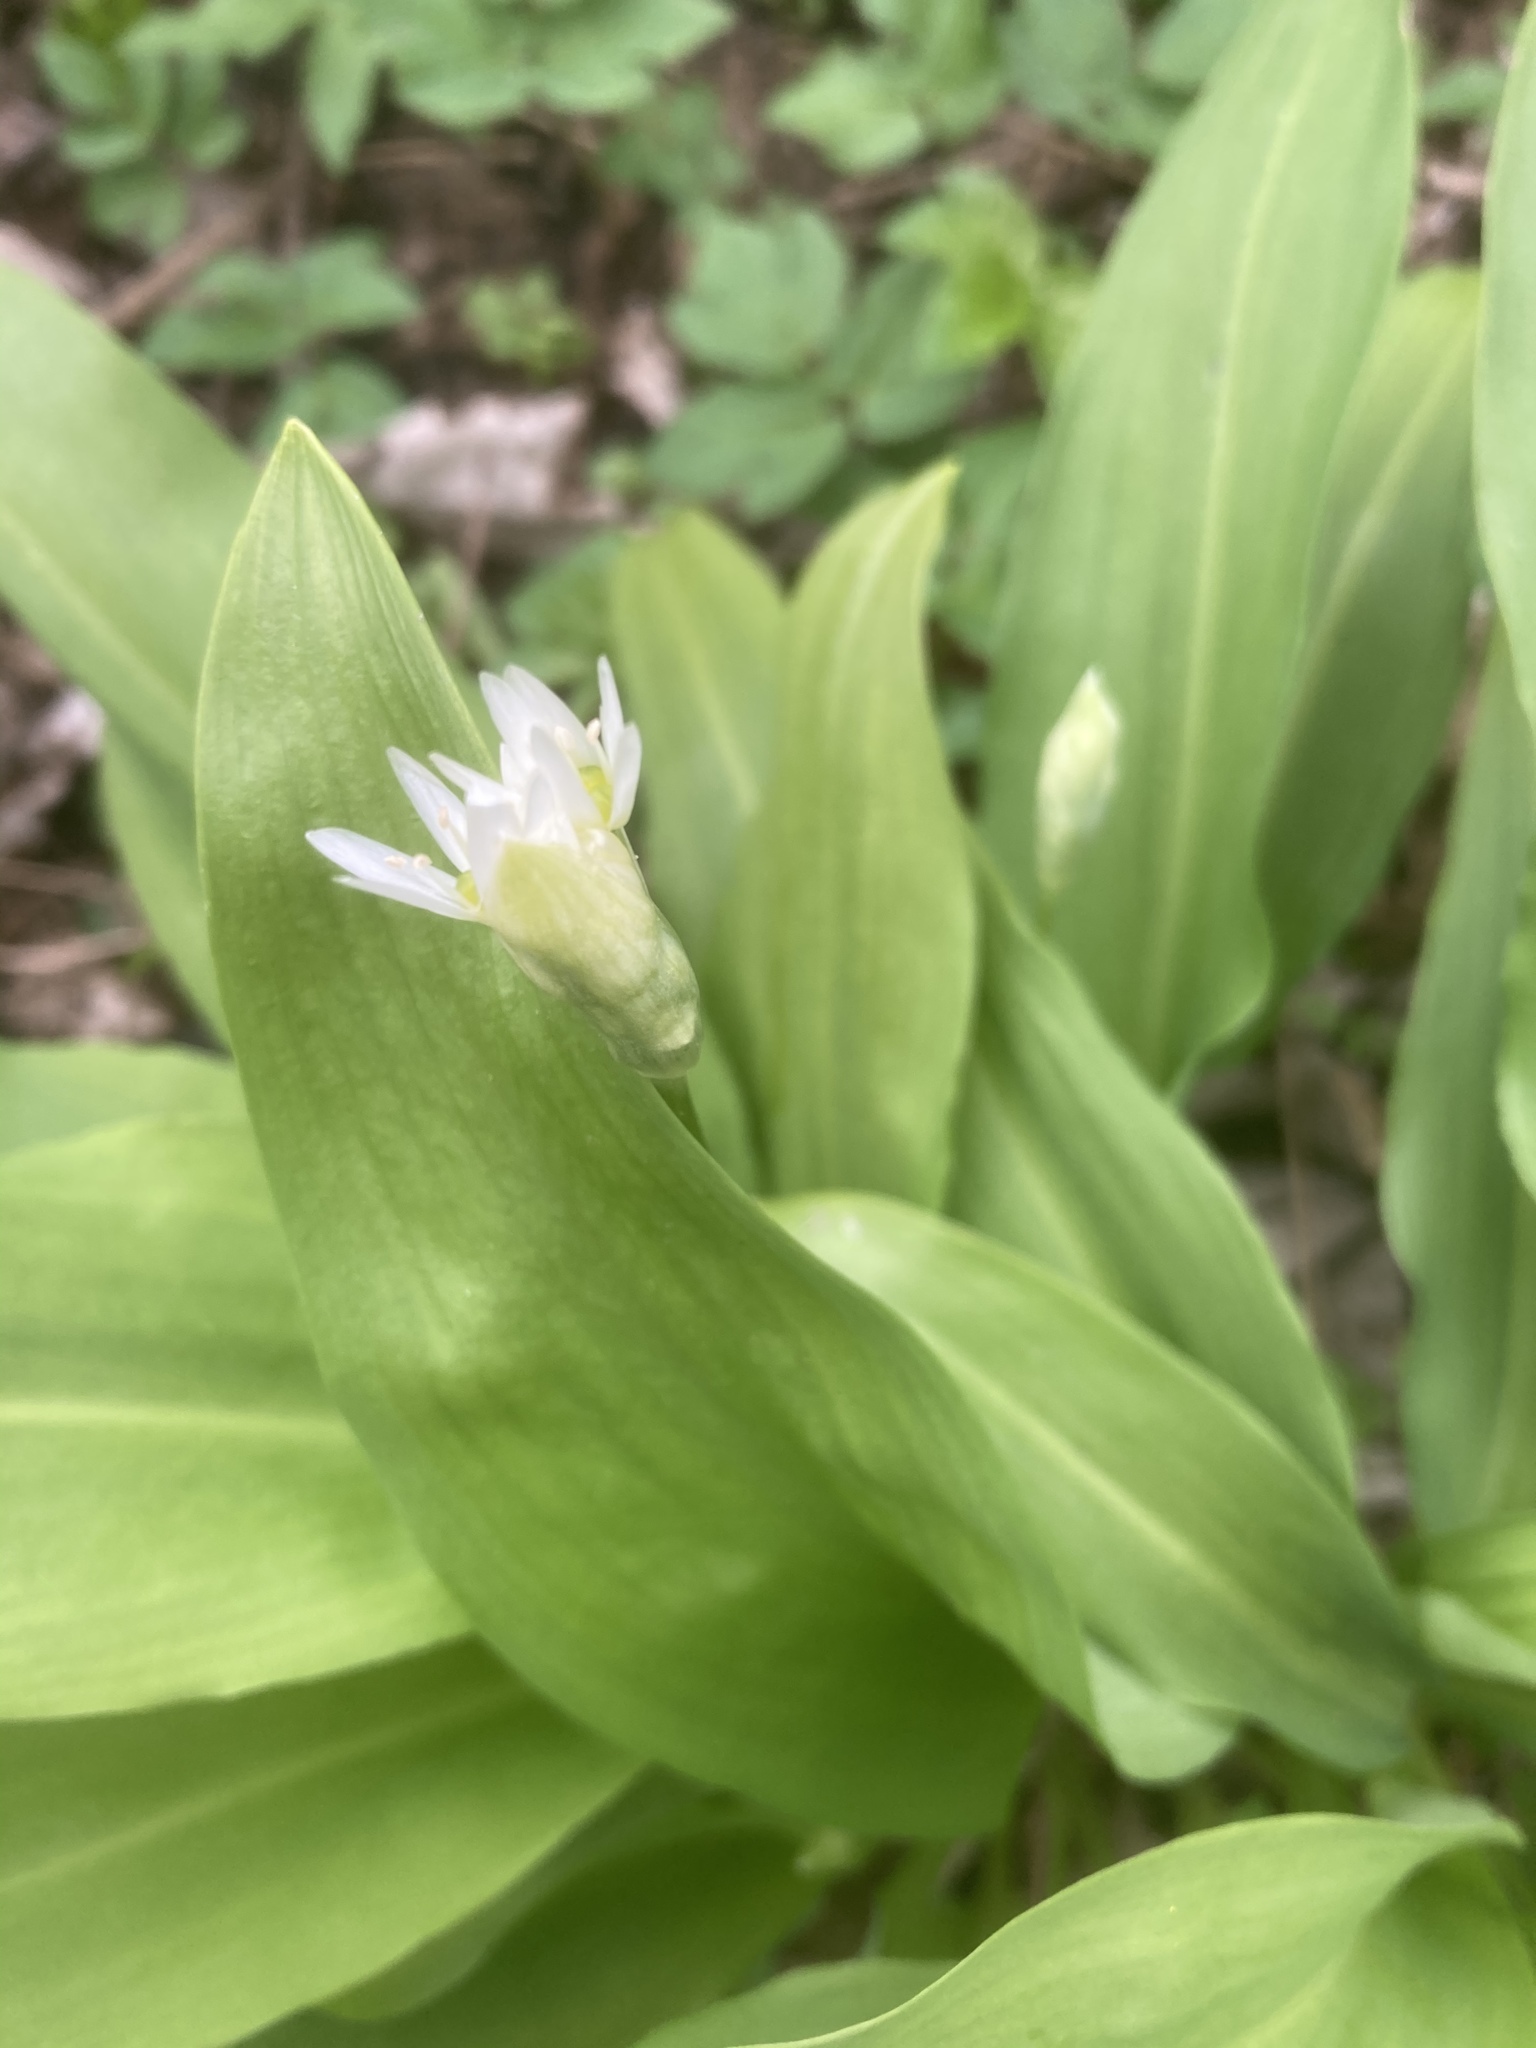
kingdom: Plantae
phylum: Tracheophyta
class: Liliopsida
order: Asparagales
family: Amaryllidaceae
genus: Allium
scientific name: Allium ursinum
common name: Ramsons
